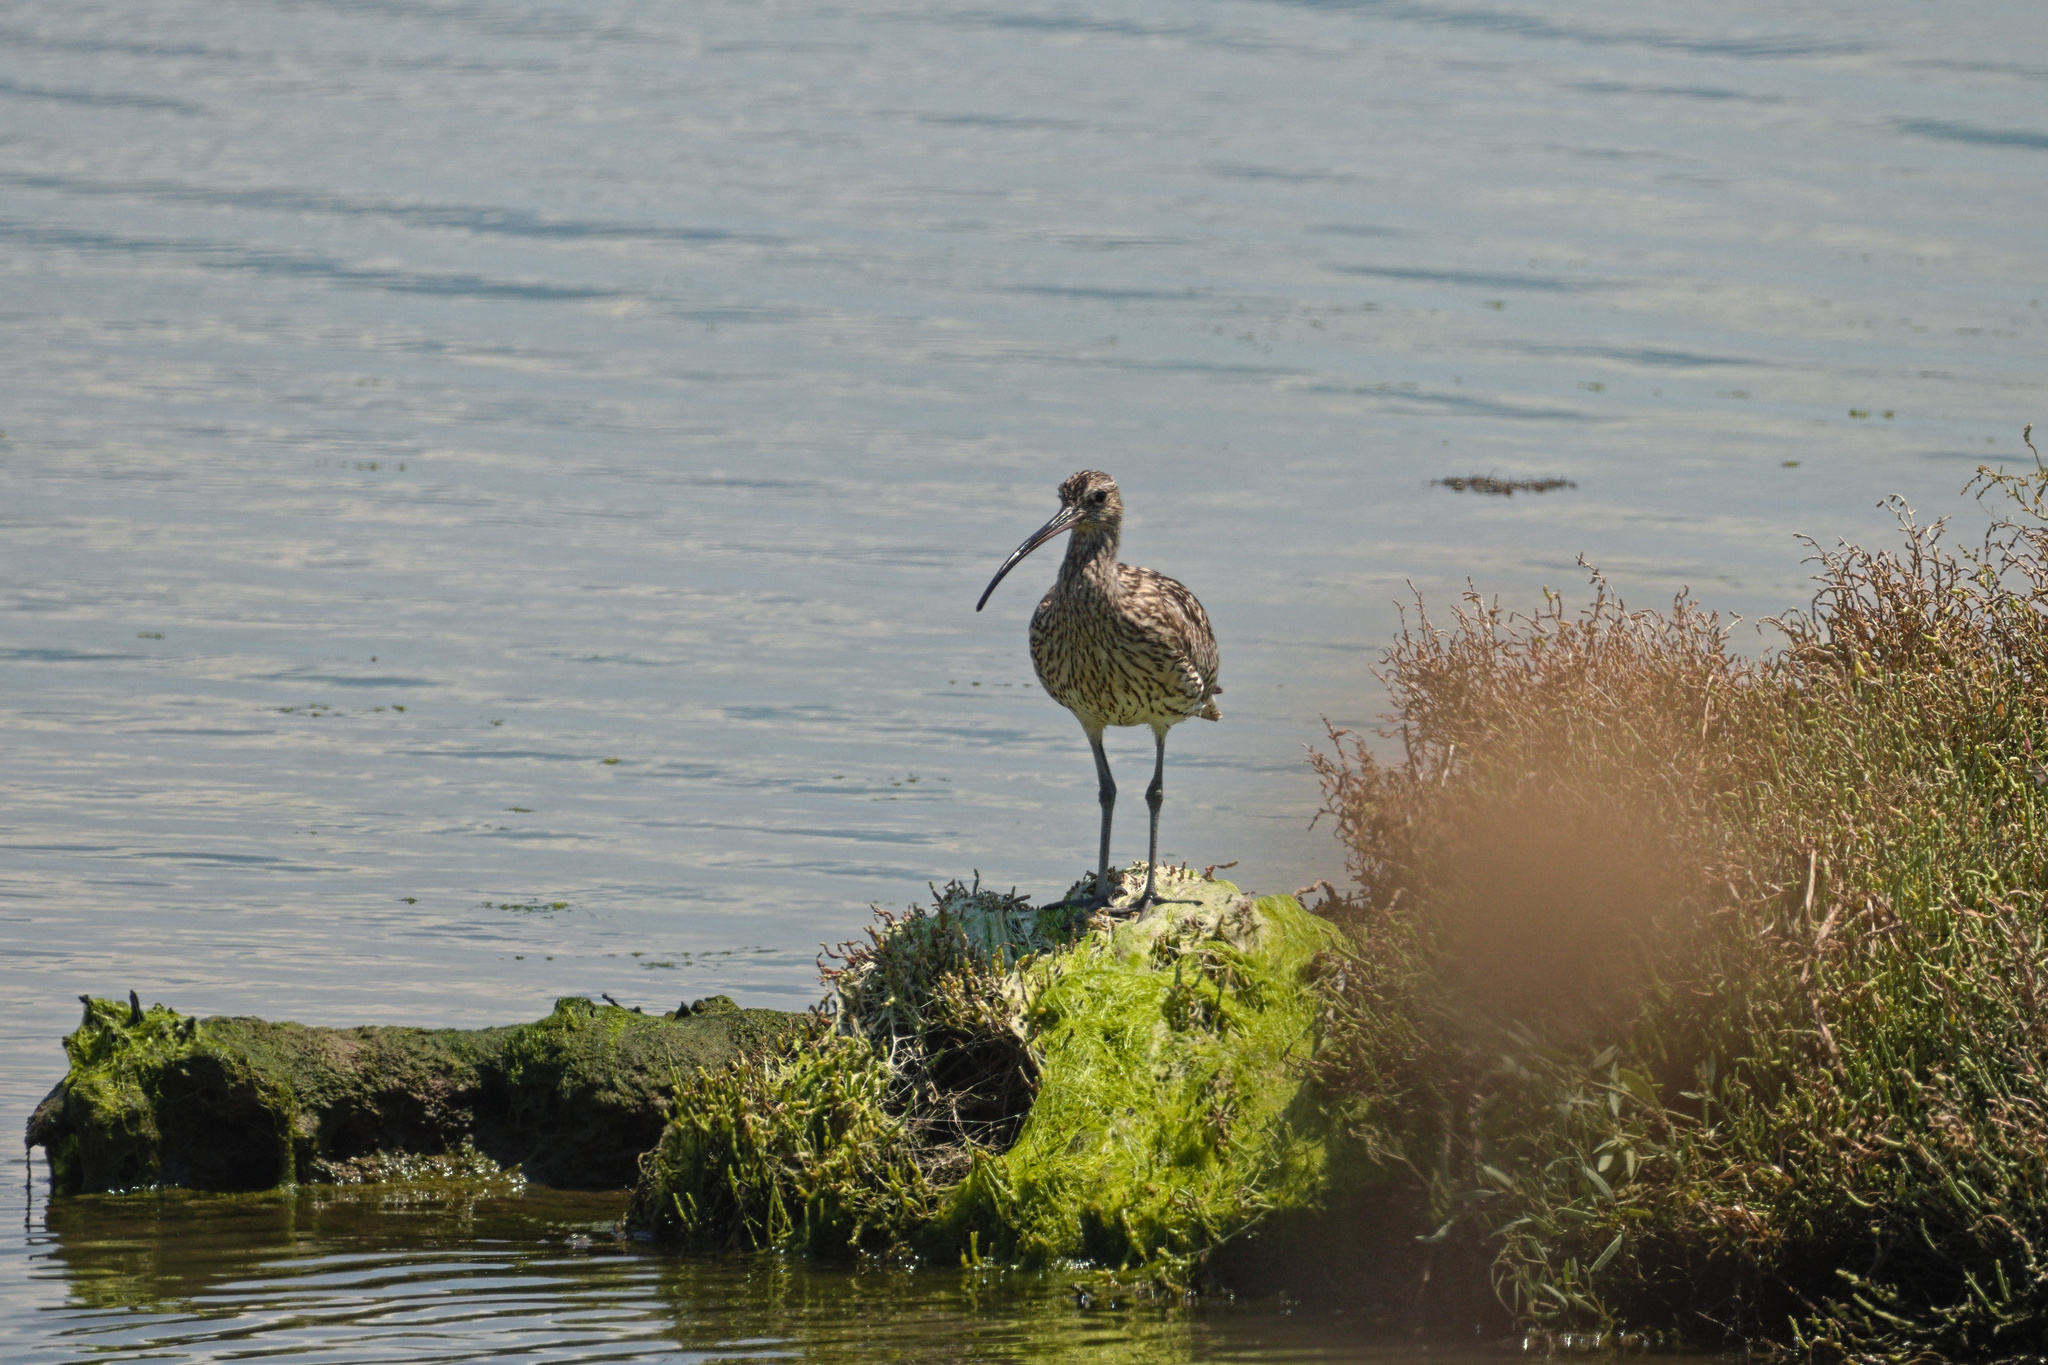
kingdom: Animalia
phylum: Chordata
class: Aves
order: Charadriiformes
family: Scolopacidae
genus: Numenius
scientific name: Numenius arquata
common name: Eurasian curlew
